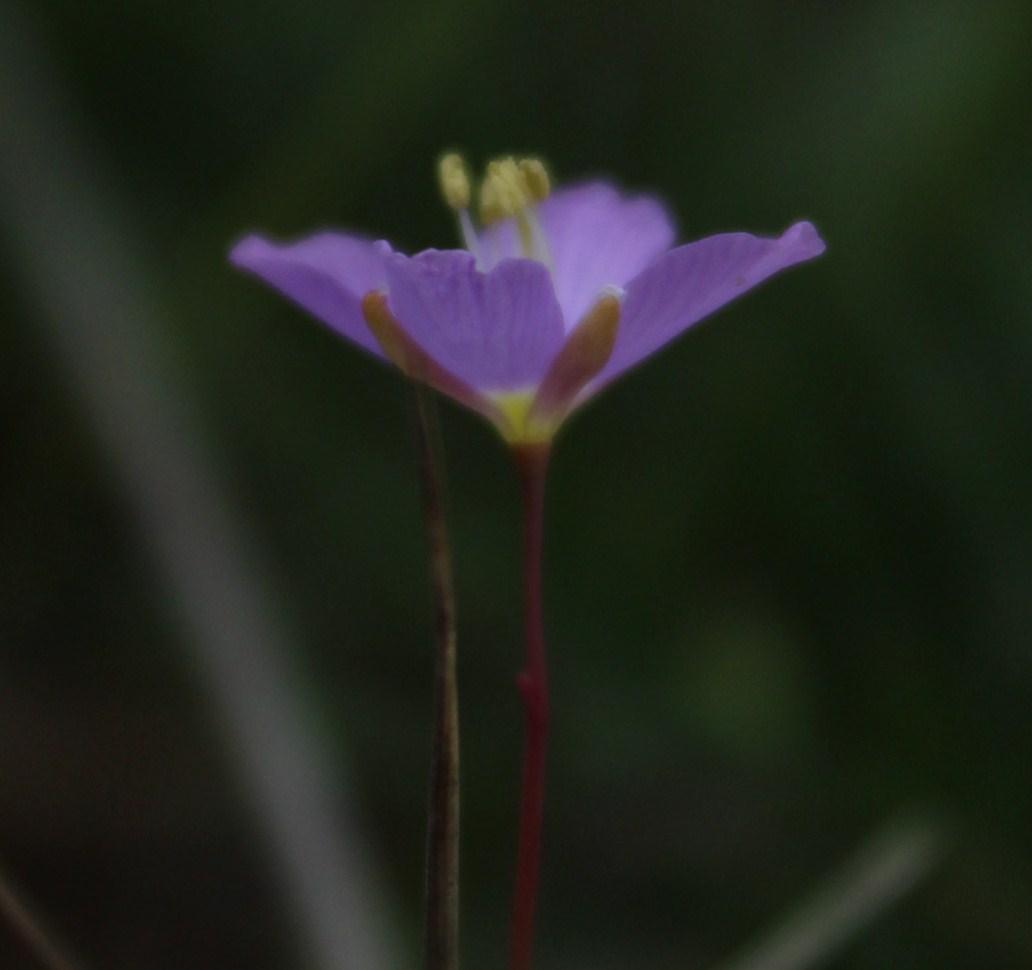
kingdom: Plantae
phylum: Tracheophyta
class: Magnoliopsida
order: Brassicales
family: Brassicaceae
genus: Heliophila
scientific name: Heliophila linoides
